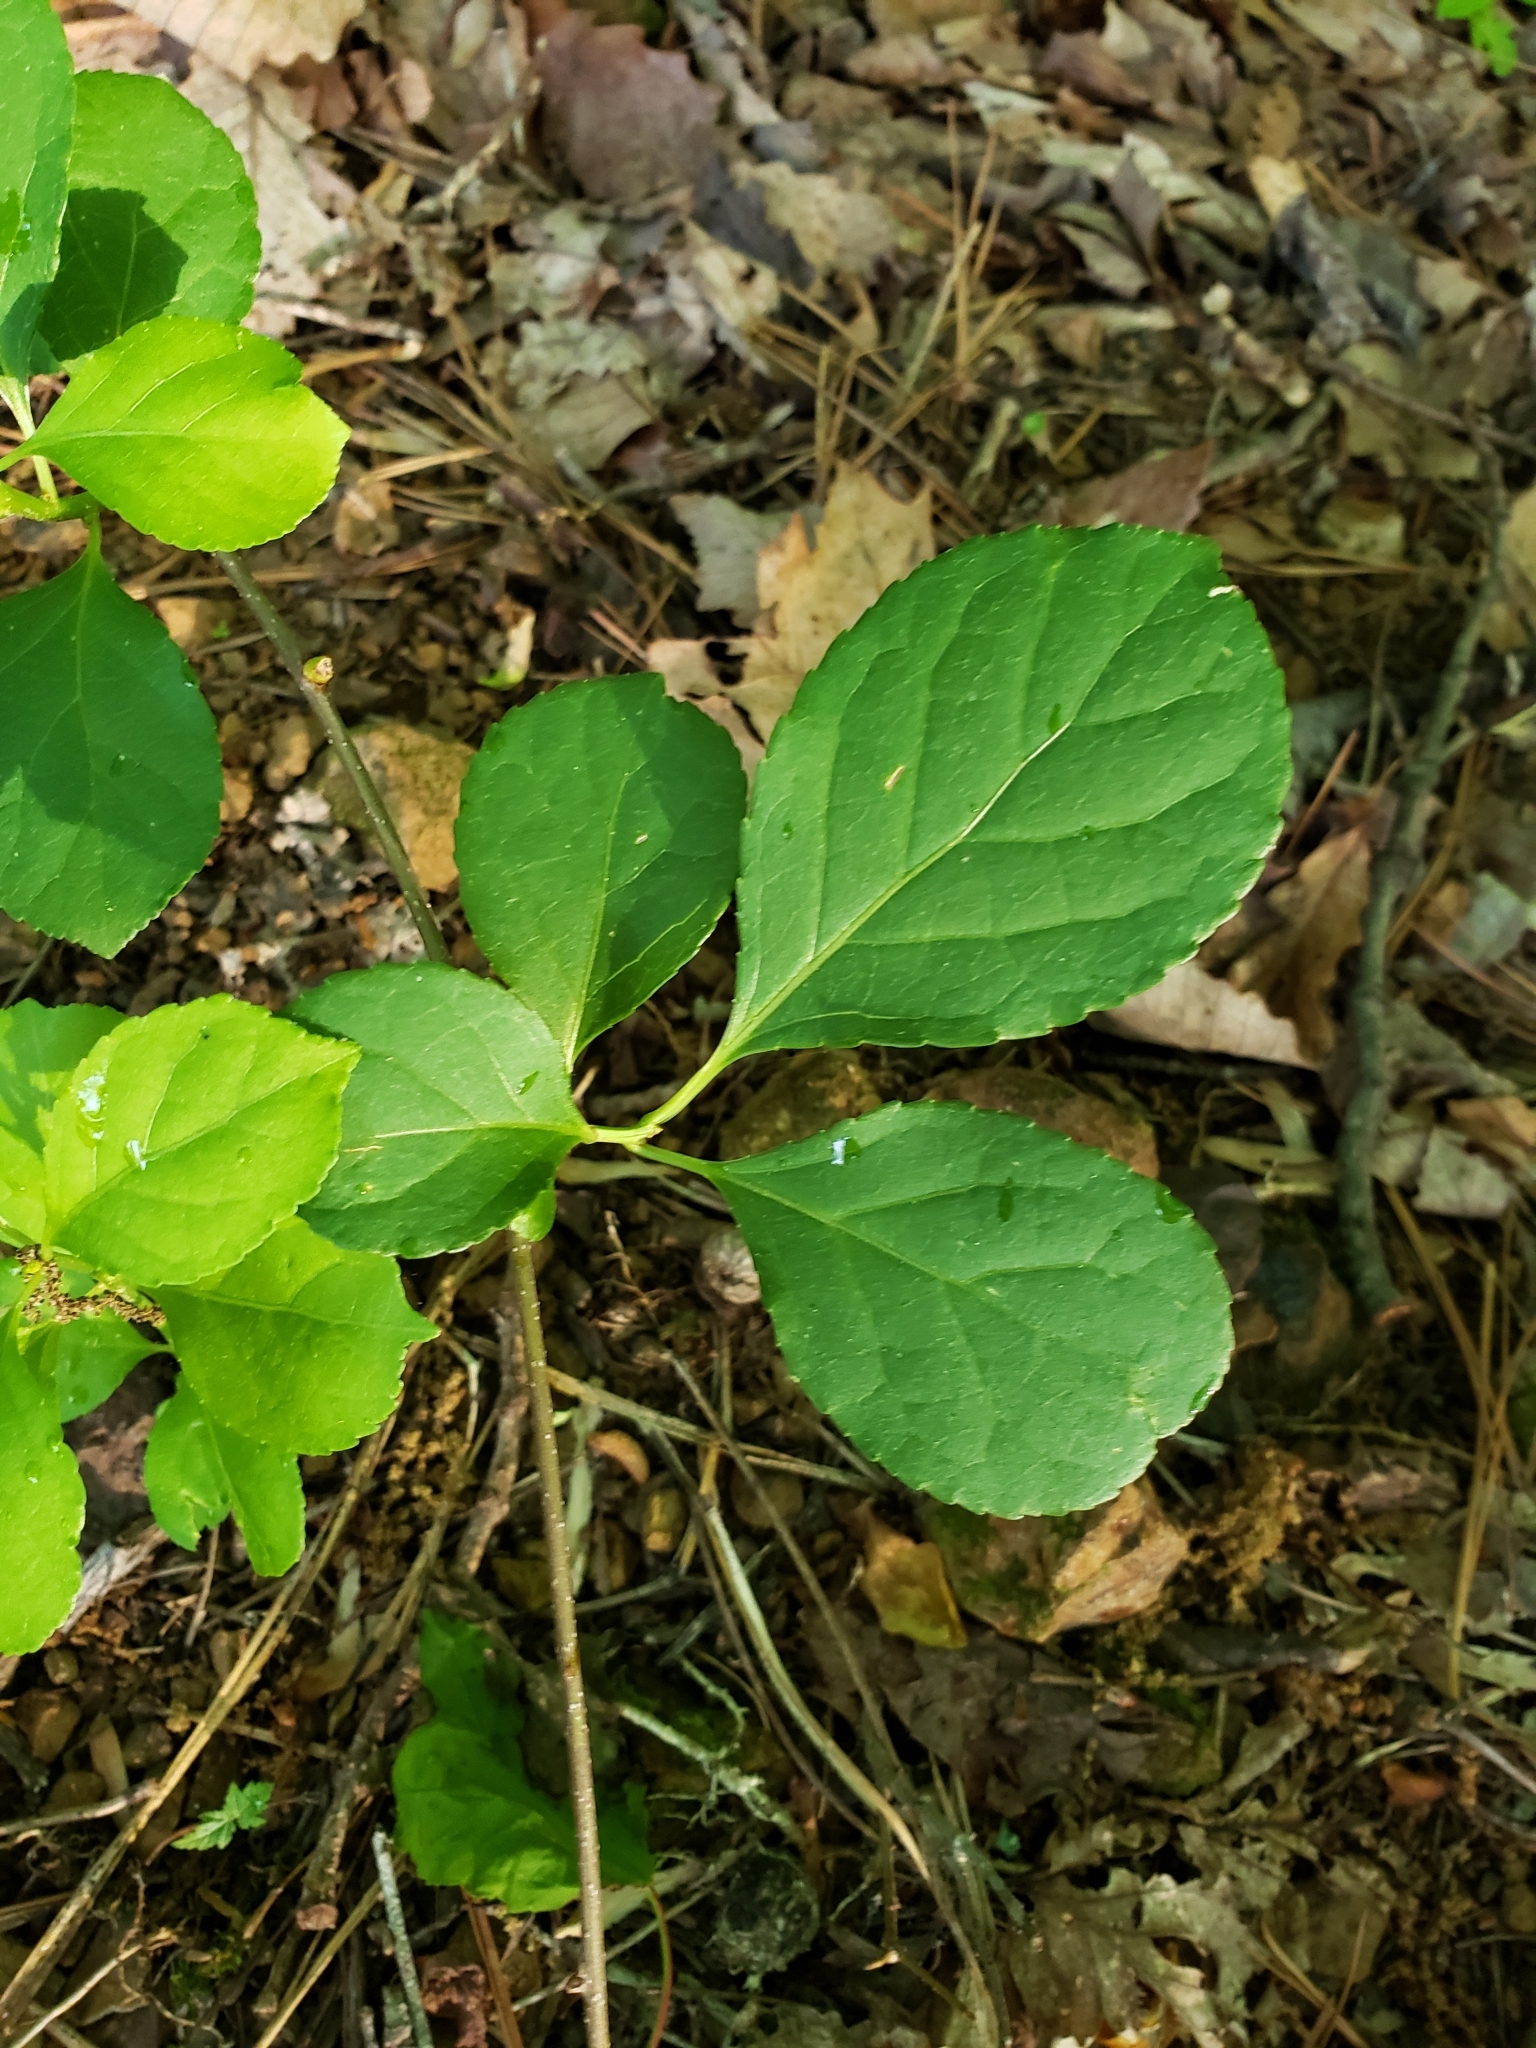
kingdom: Plantae
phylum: Tracheophyta
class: Magnoliopsida
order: Celastrales
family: Celastraceae
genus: Celastrus
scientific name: Celastrus orbiculatus
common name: Oriental bittersweet
